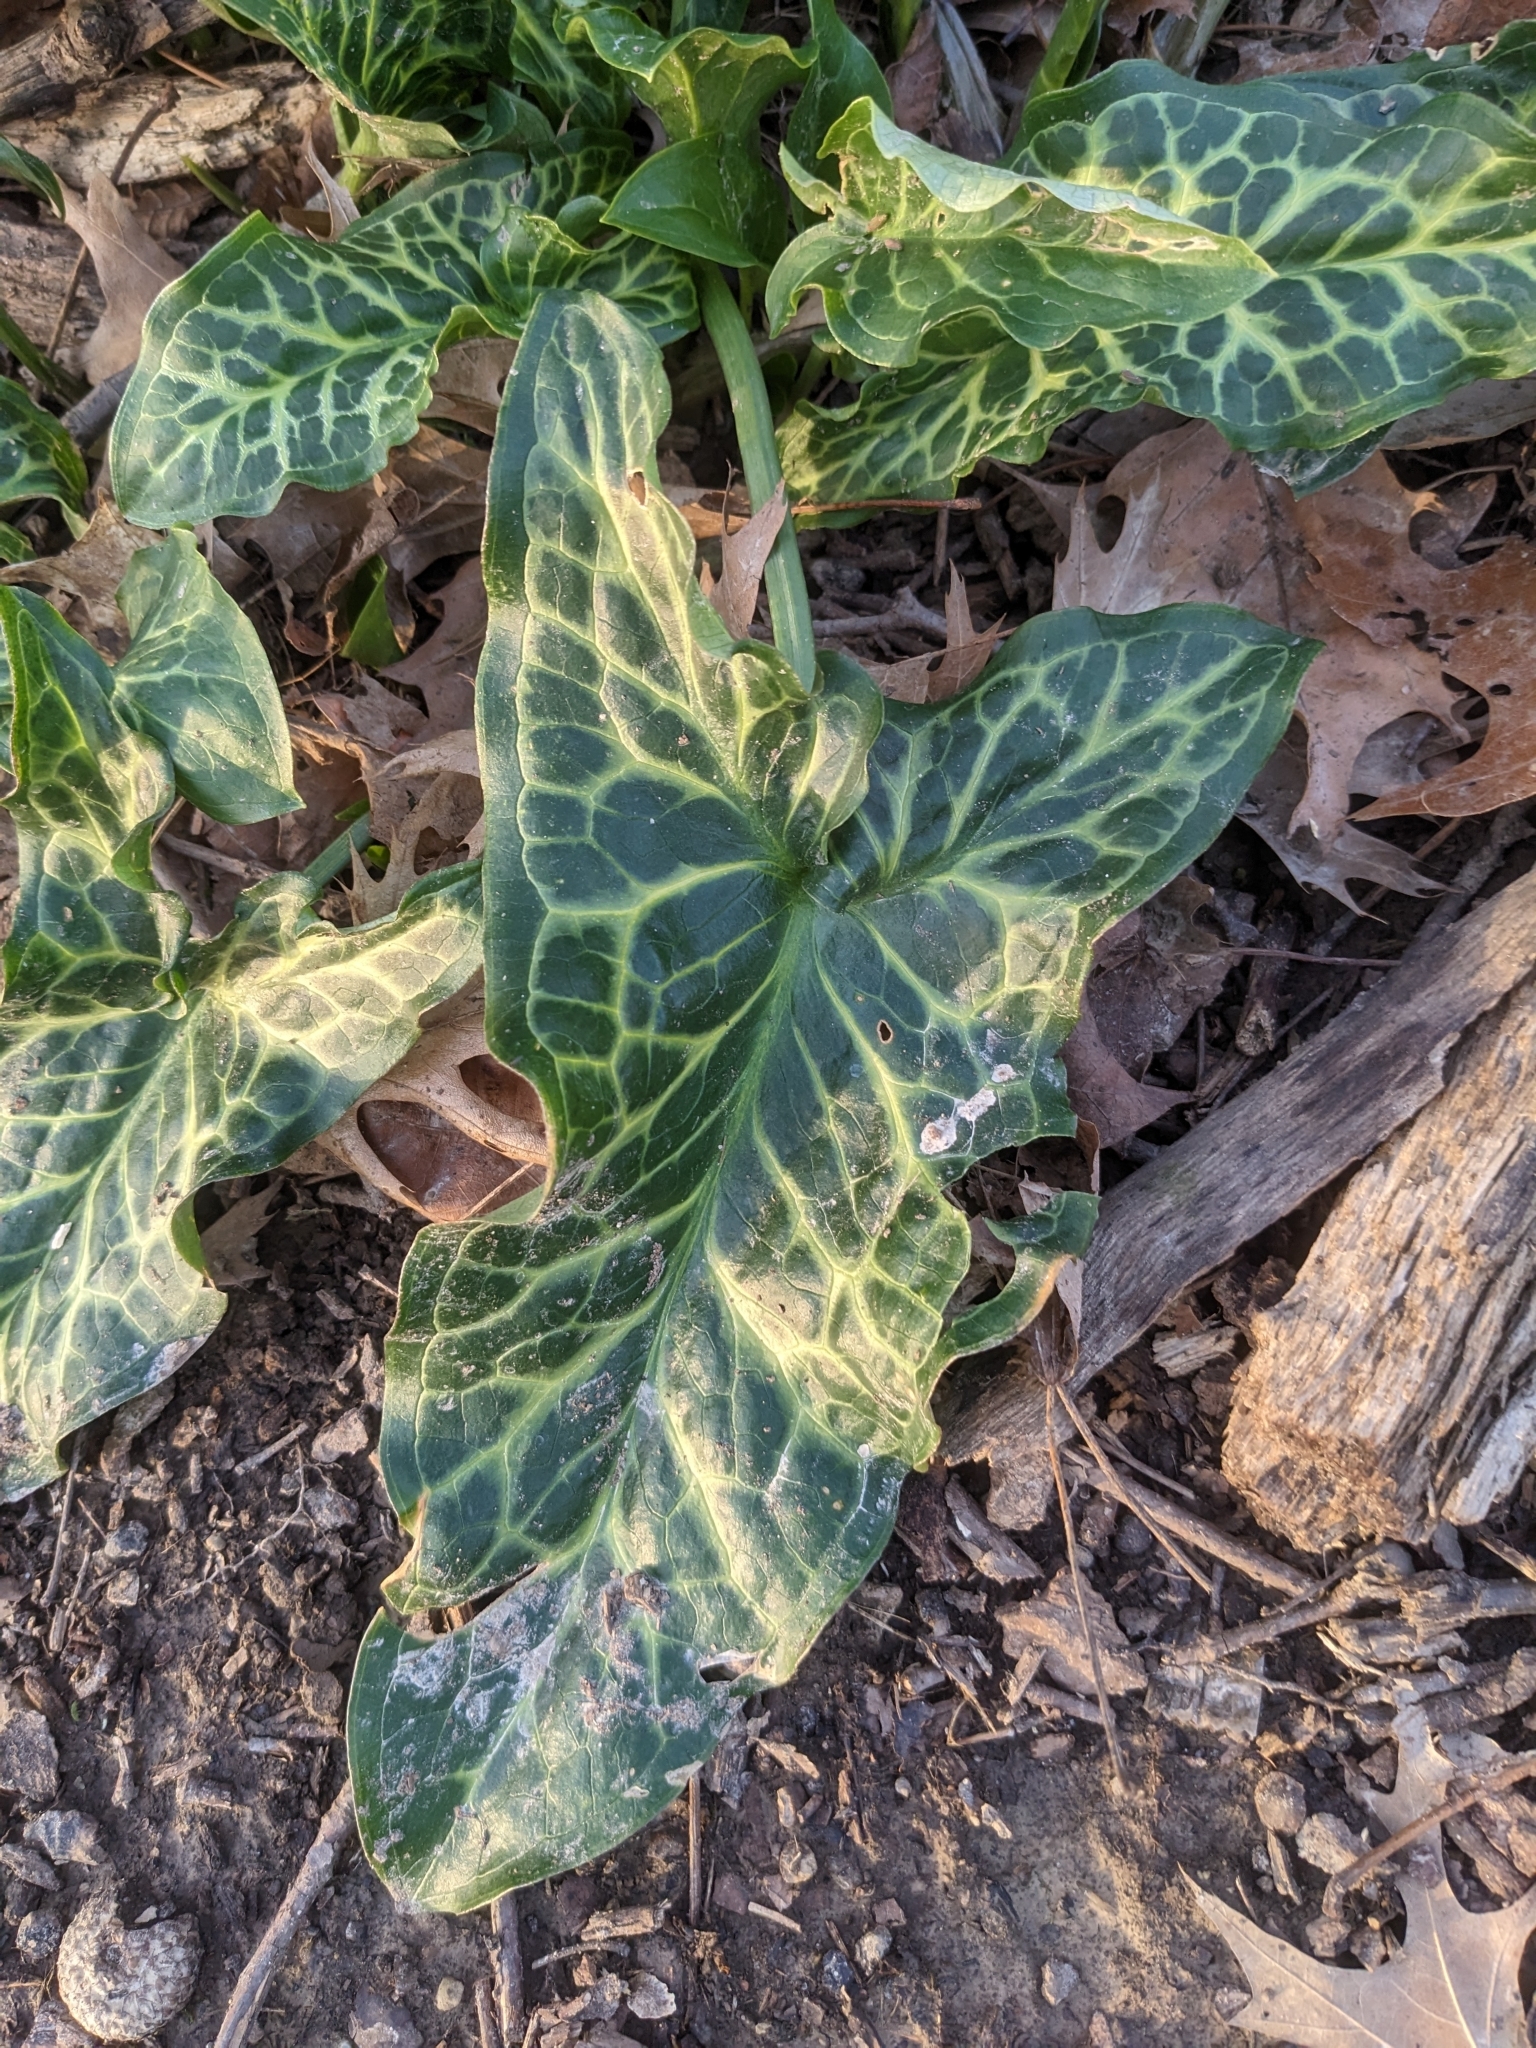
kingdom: Plantae
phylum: Tracheophyta
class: Liliopsida
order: Alismatales
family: Araceae
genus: Arum
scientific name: Arum italicum
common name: Italian lords-and-ladies
